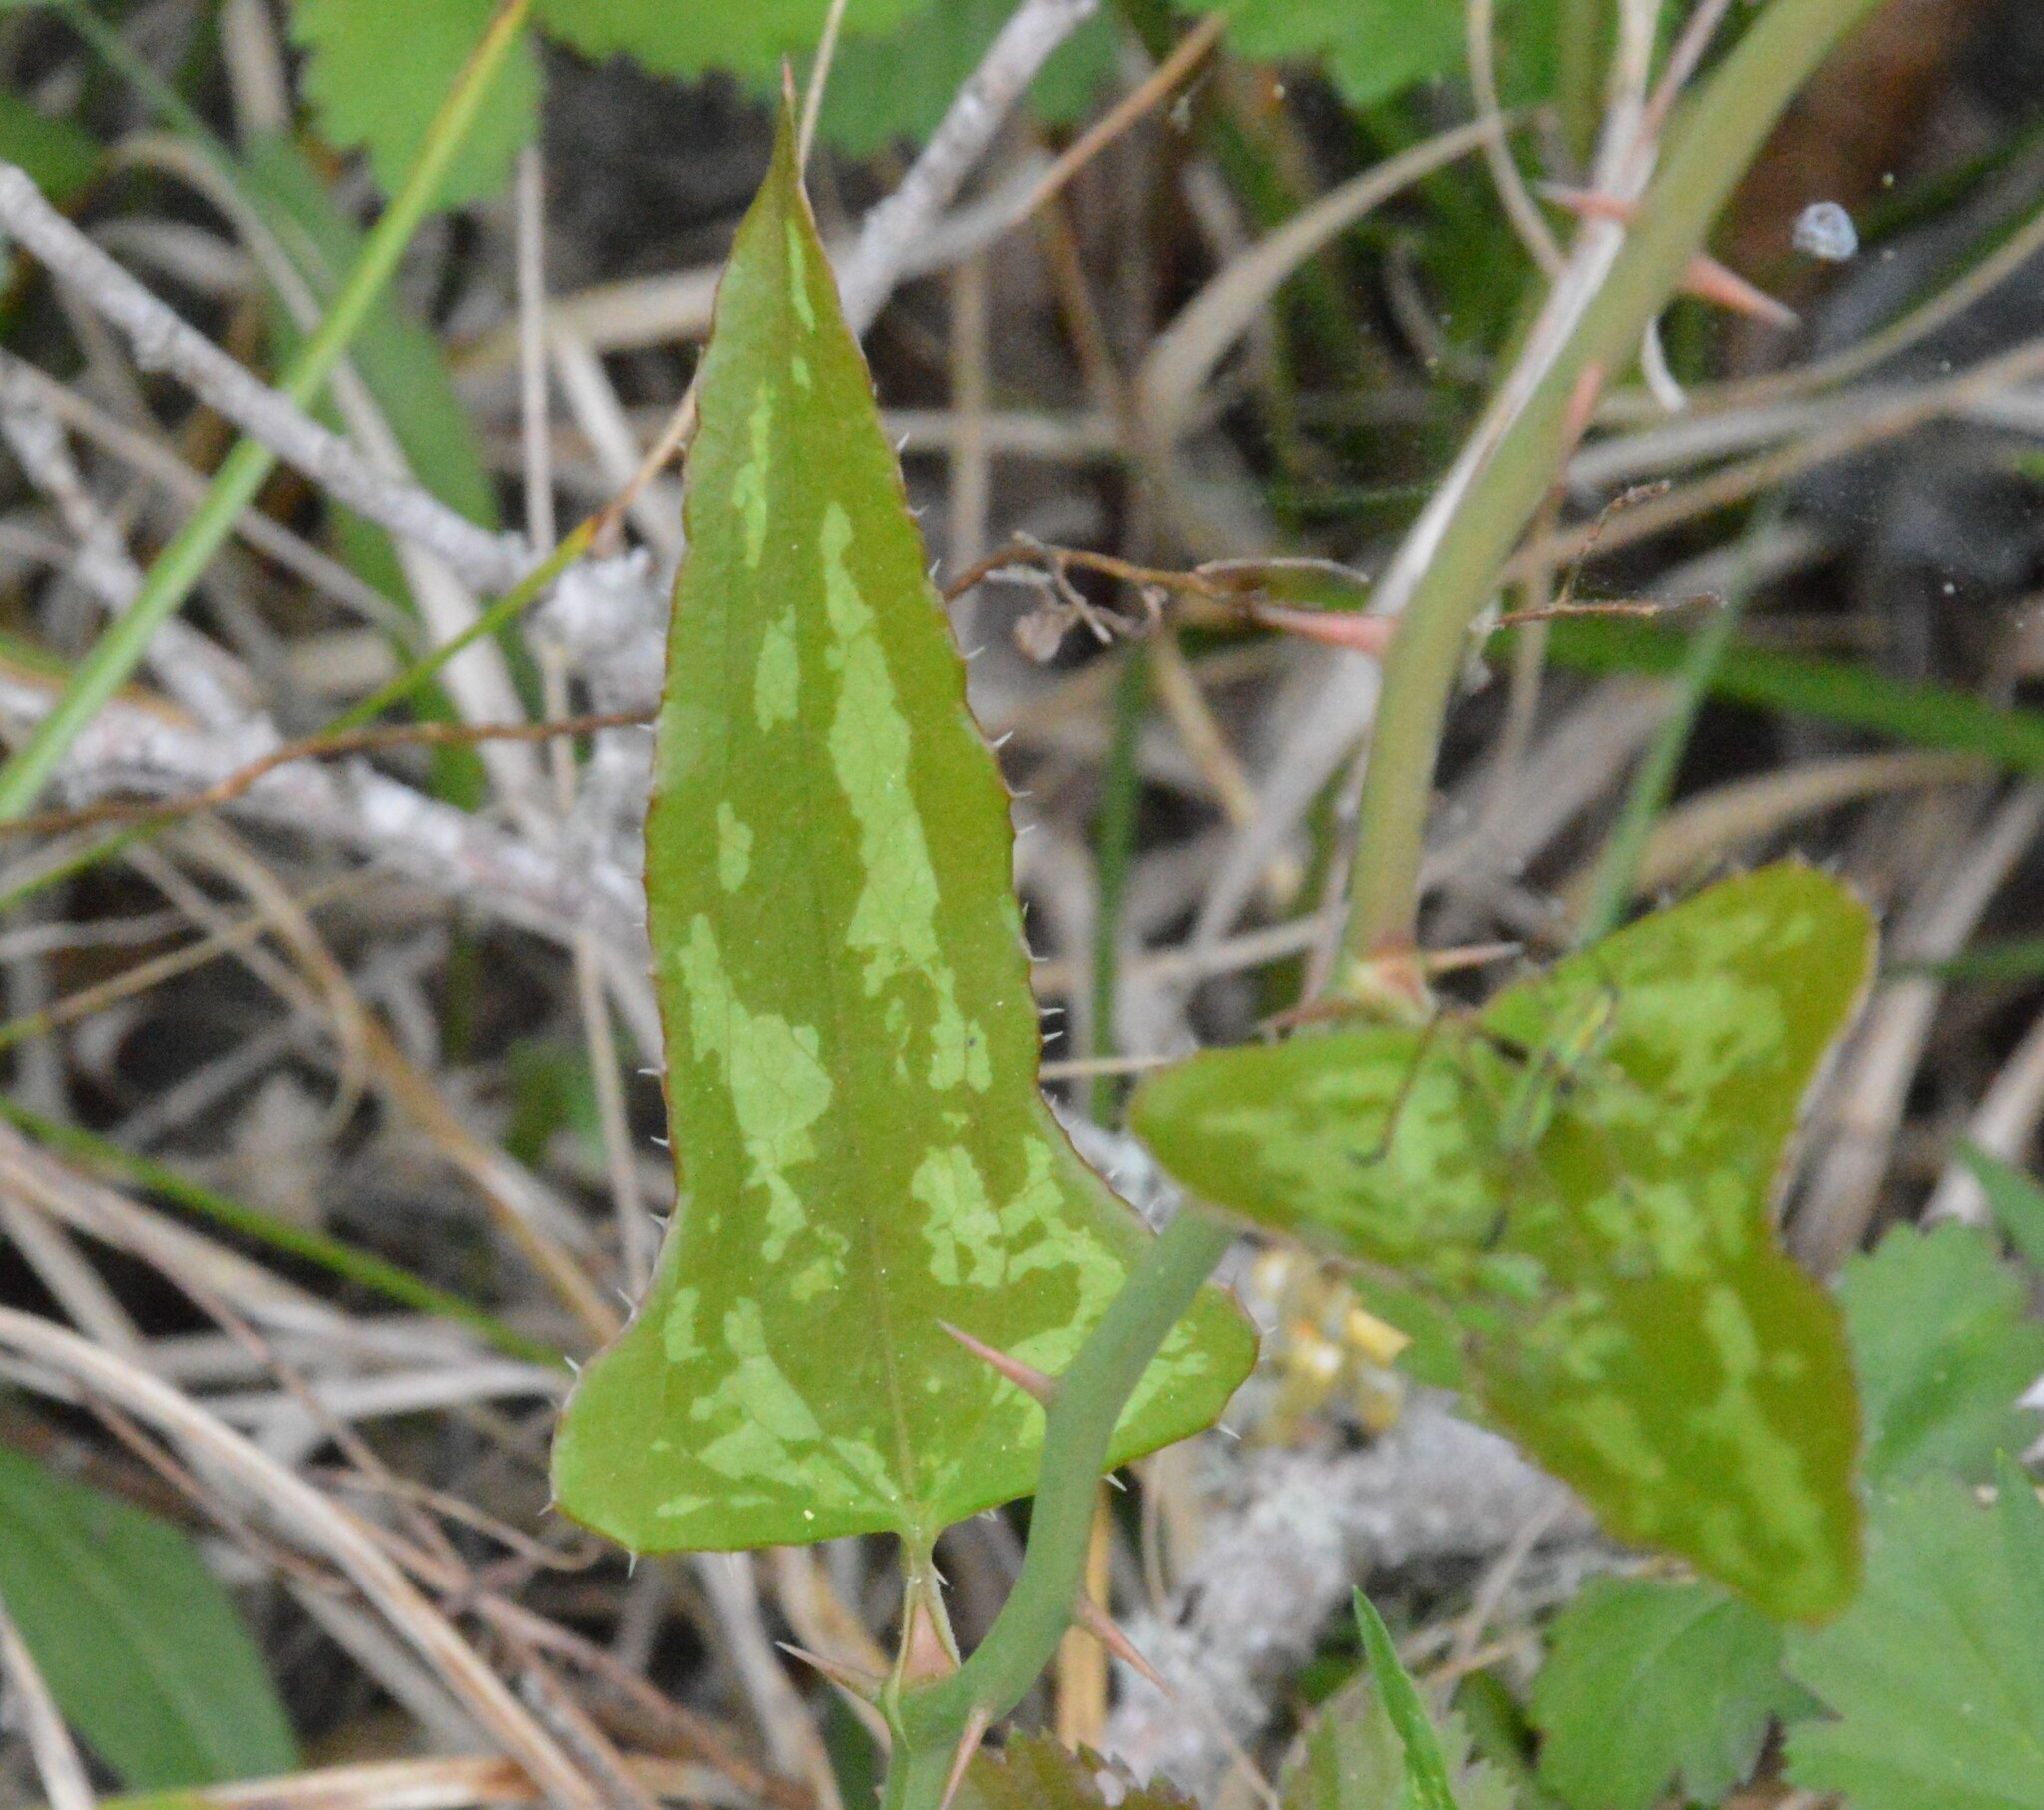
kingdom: Plantae
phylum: Tracheophyta
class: Liliopsida
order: Liliales
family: Smilacaceae
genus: Smilax
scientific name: Smilax bona-nox
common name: Catbrier
